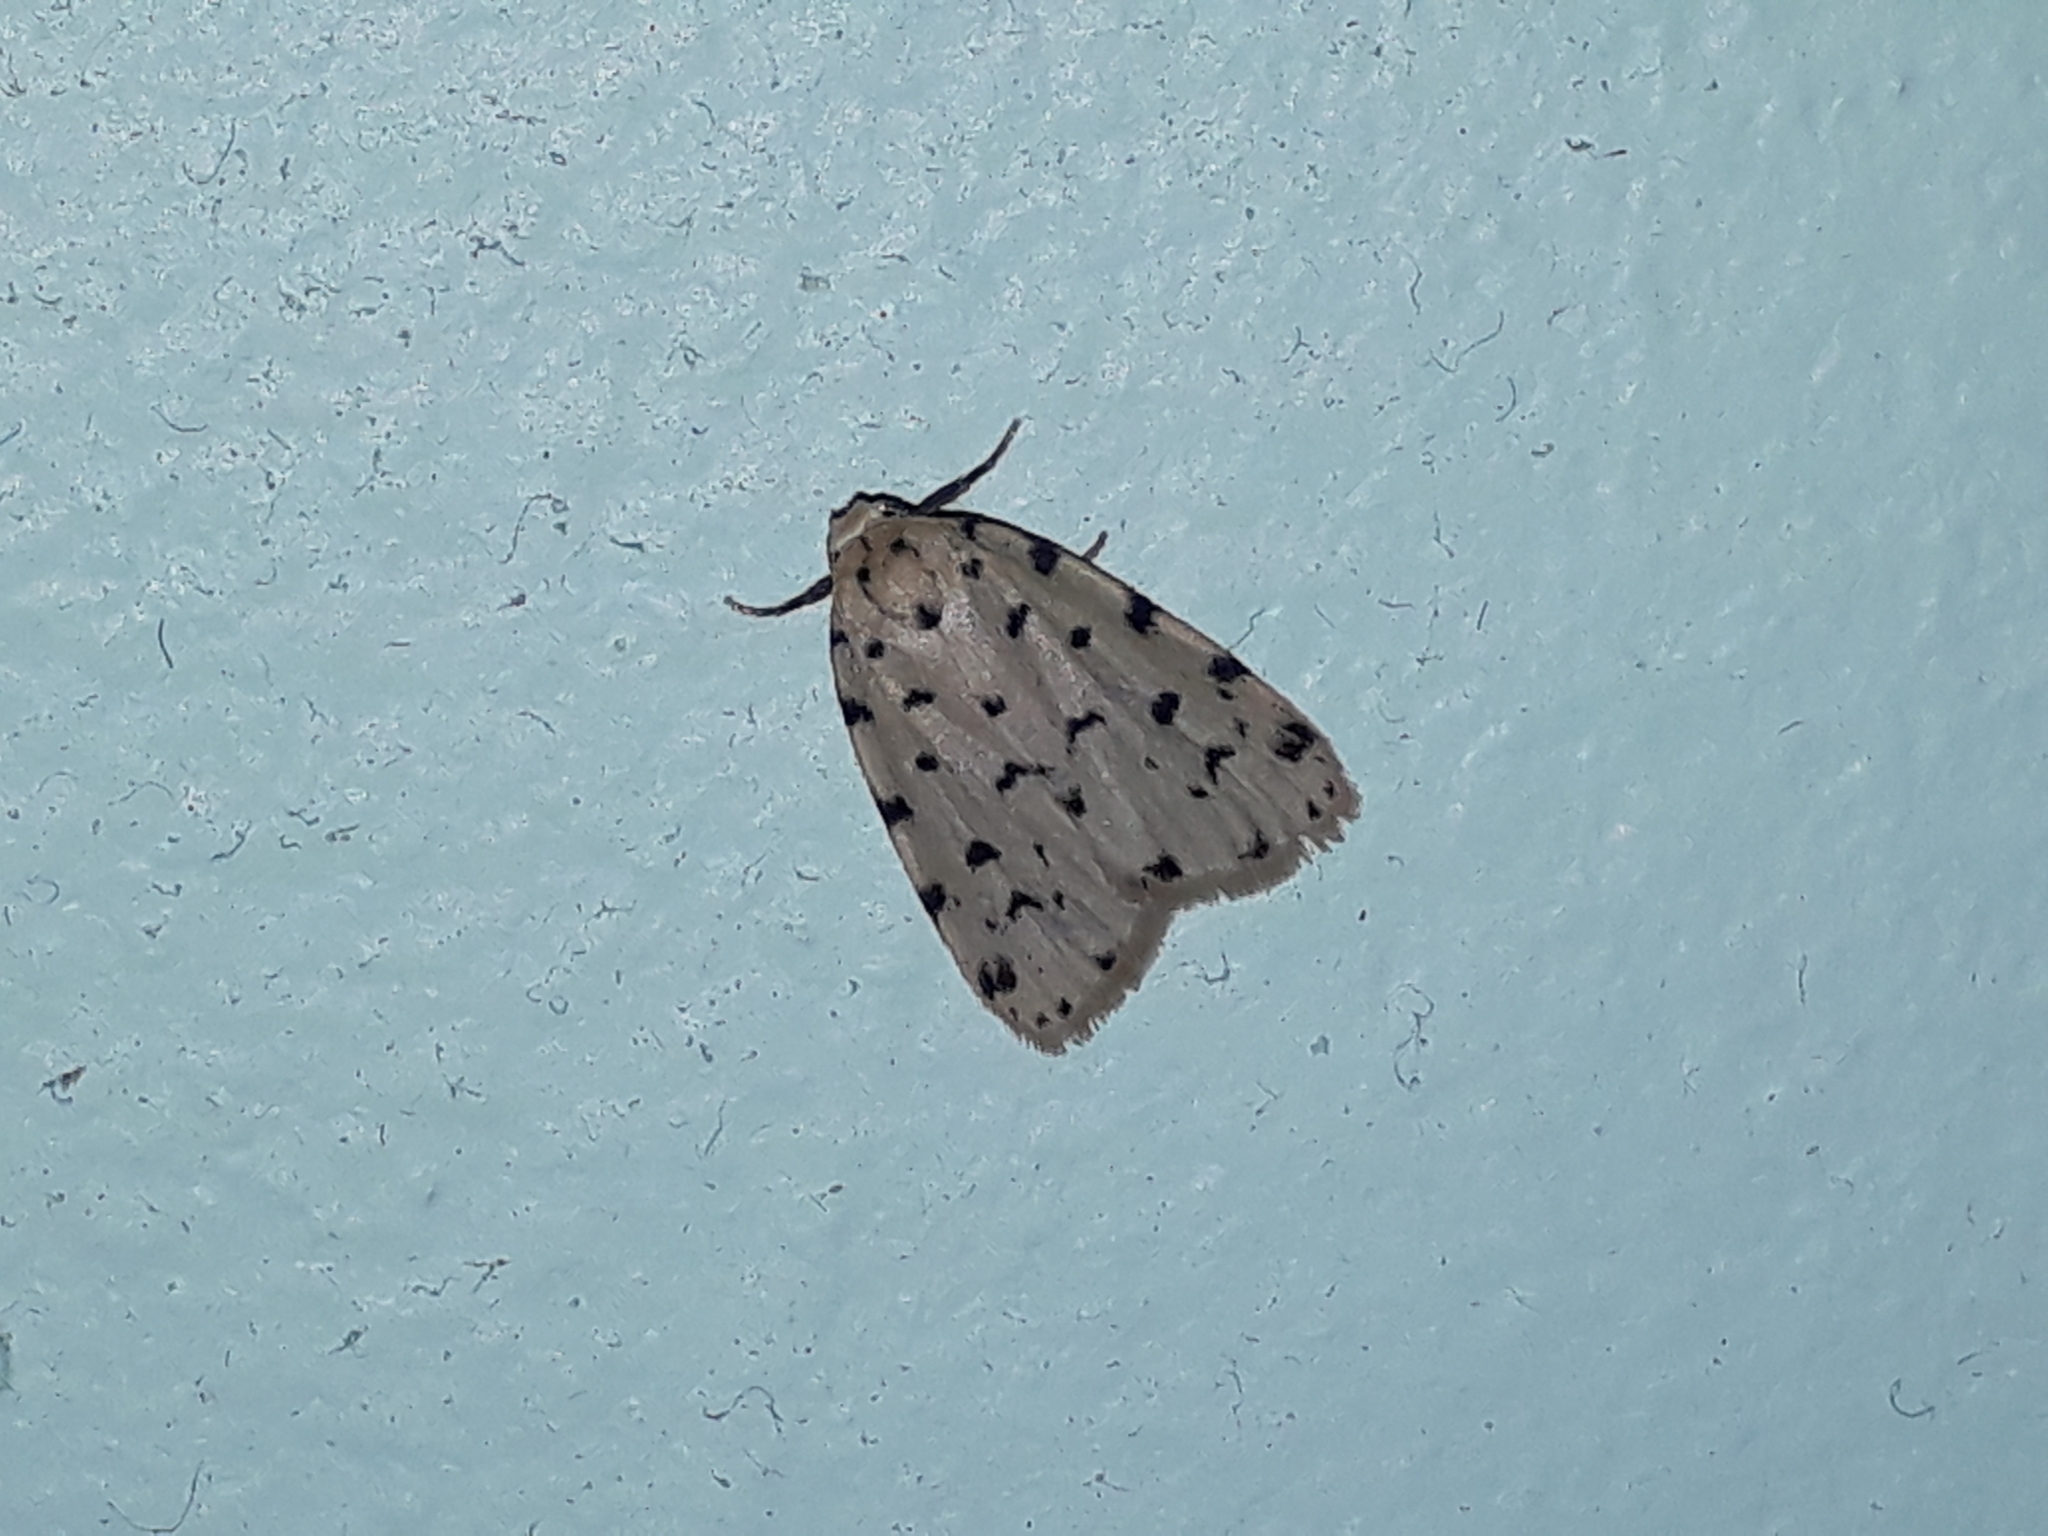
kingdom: Animalia
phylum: Arthropoda
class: Insecta
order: Lepidoptera
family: Erebidae
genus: Siccia
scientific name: Siccia caffra
